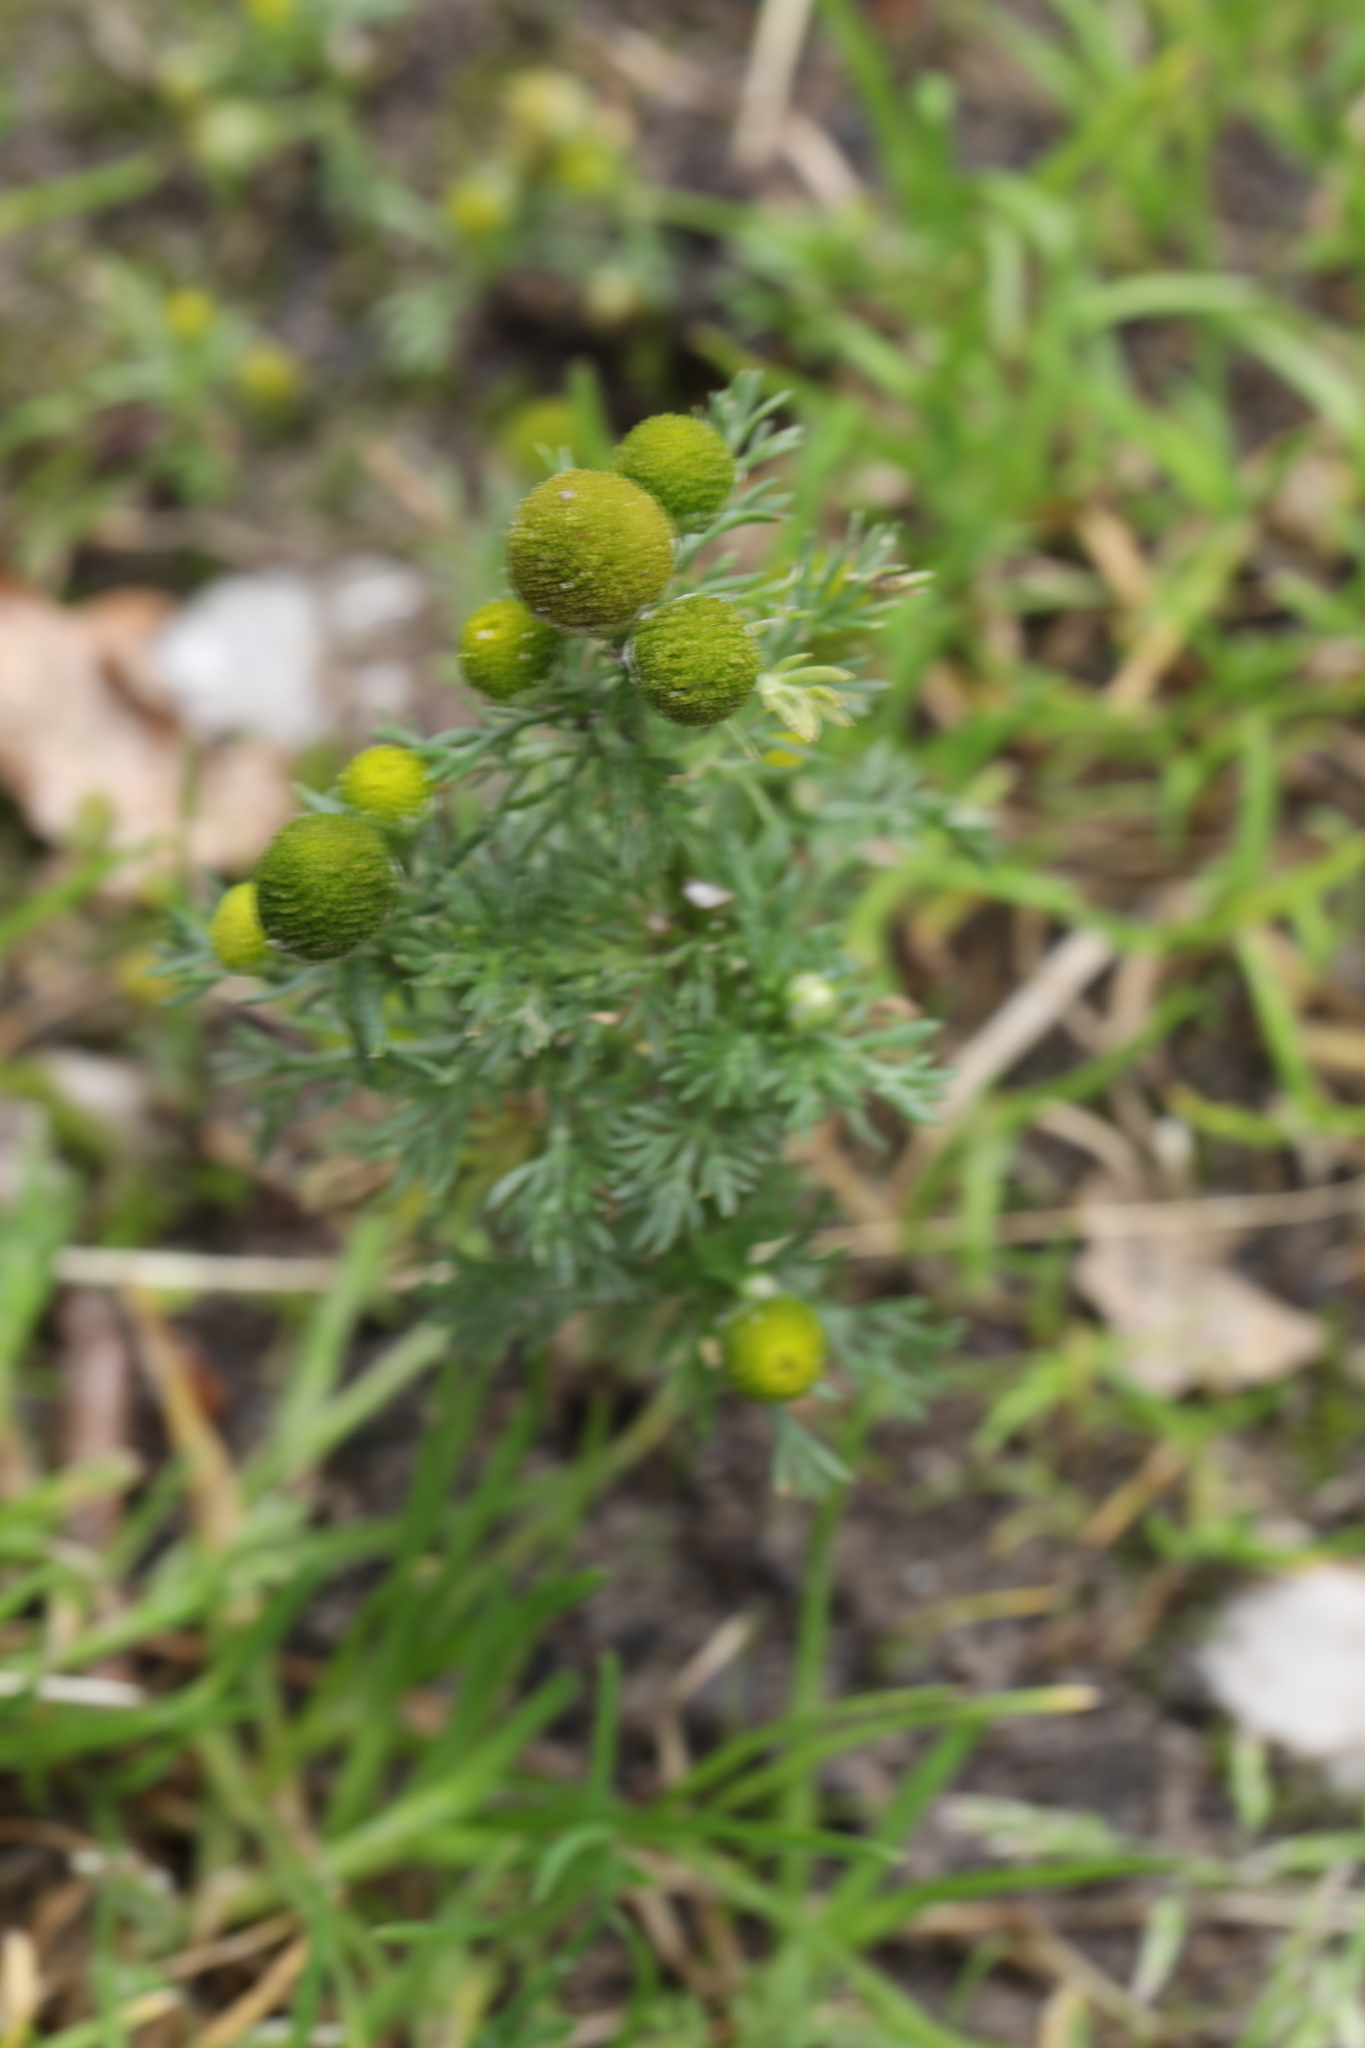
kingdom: Plantae
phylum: Tracheophyta
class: Magnoliopsida
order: Asterales
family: Asteraceae
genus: Matricaria
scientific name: Matricaria discoidea
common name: Disc mayweed
